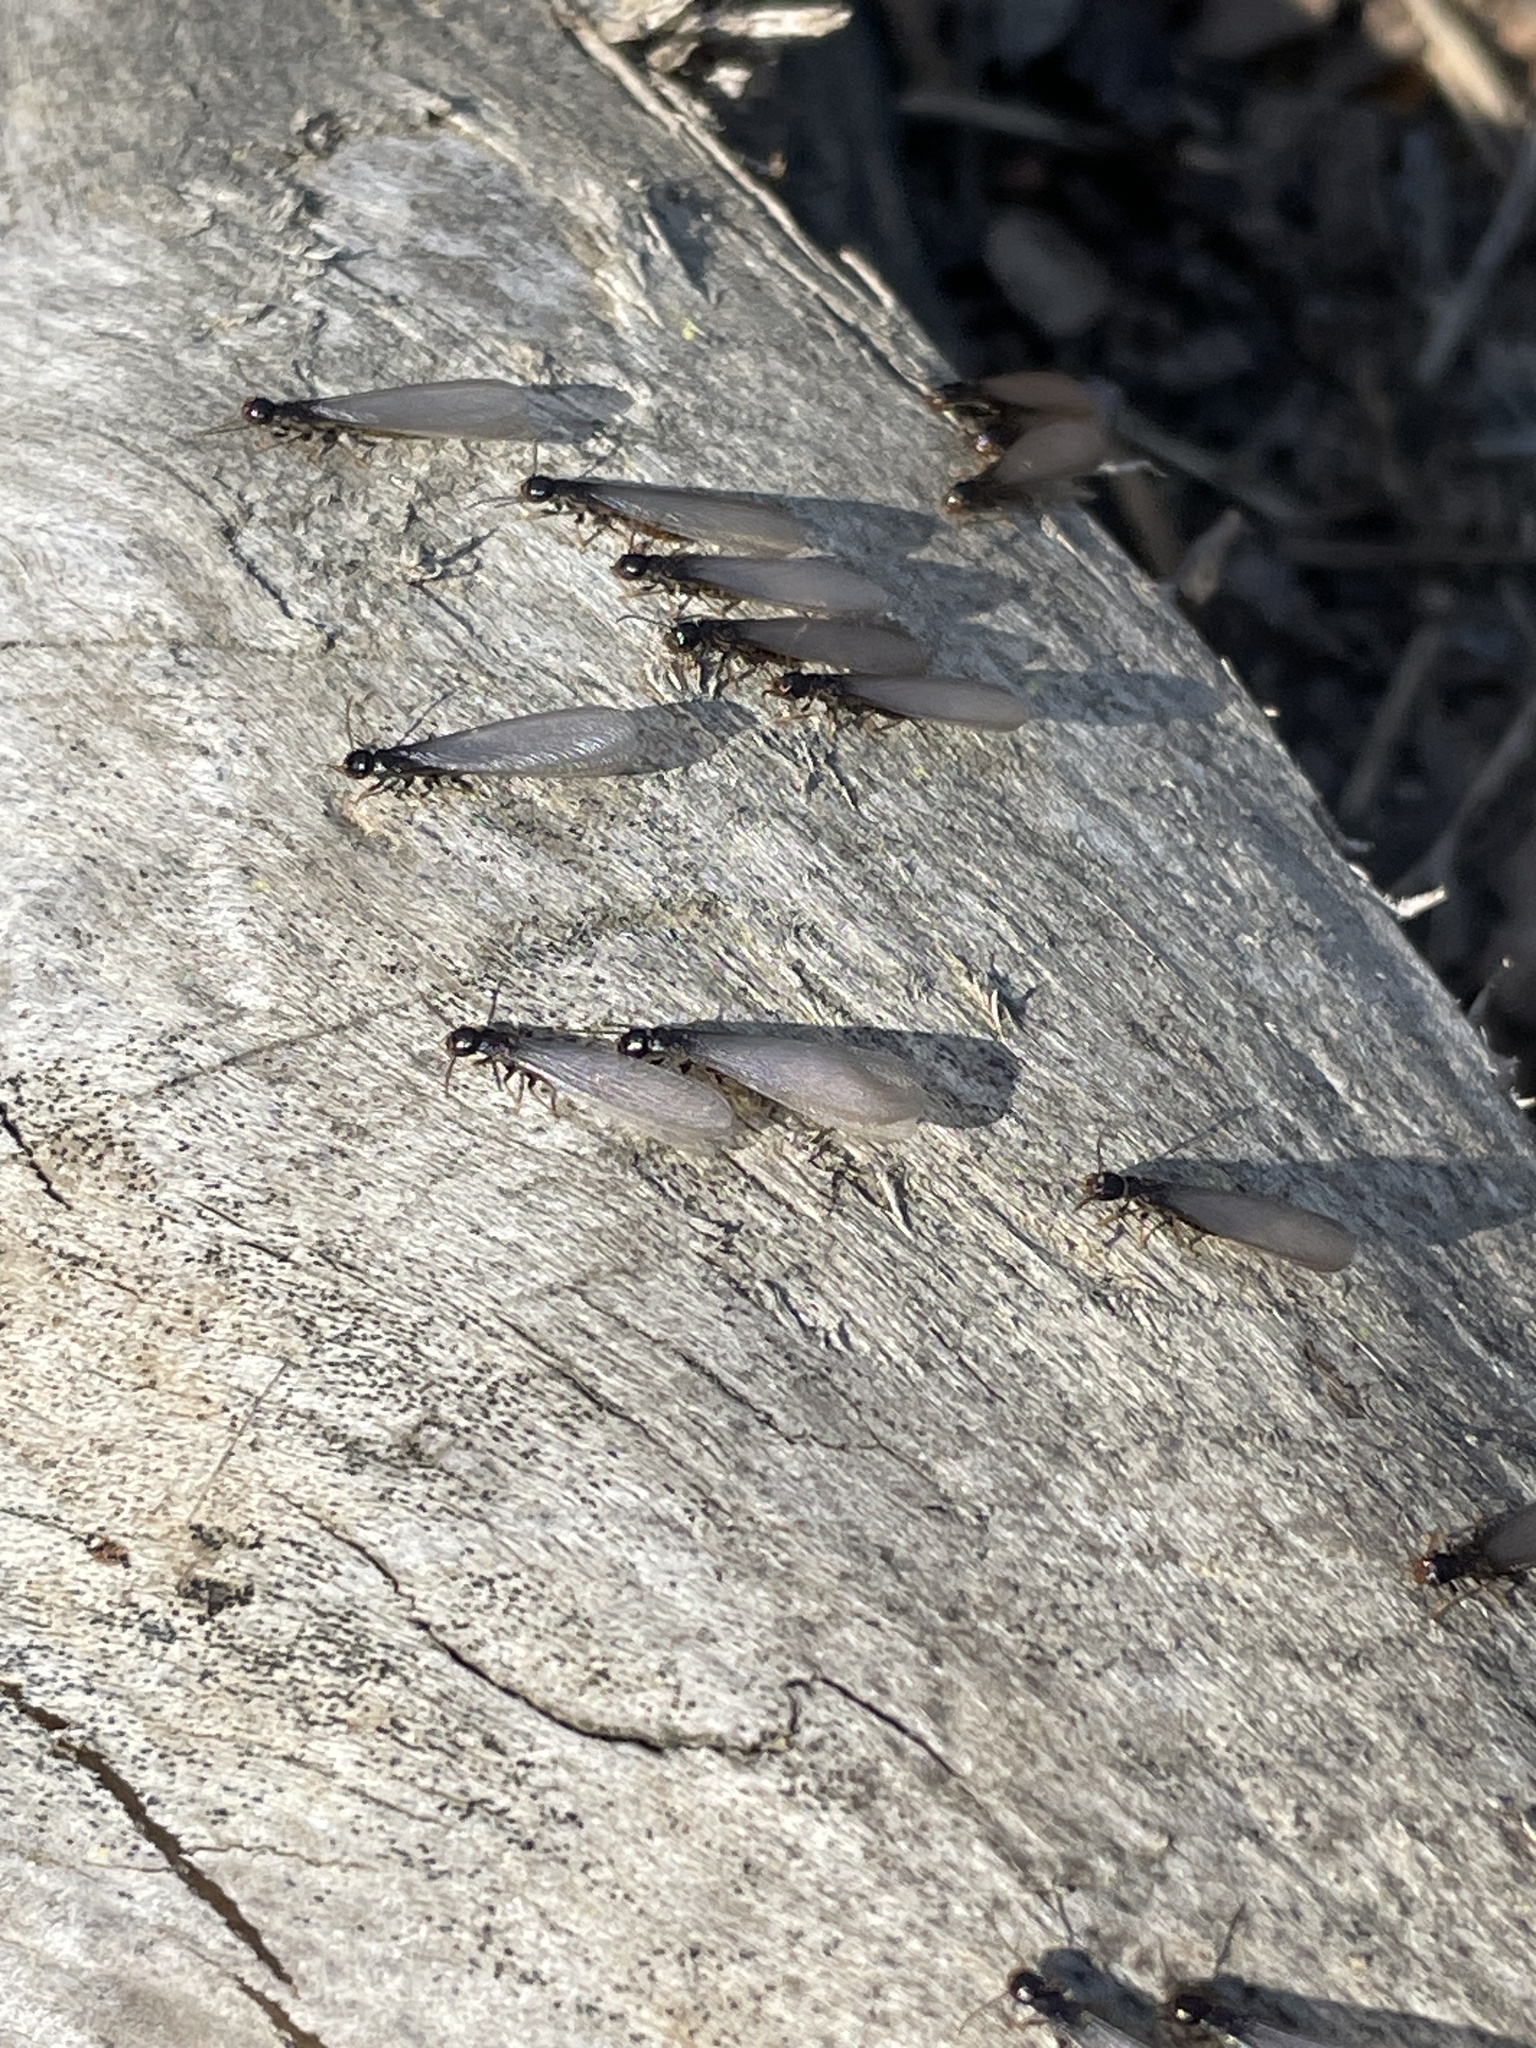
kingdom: Animalia
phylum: Arthropoda
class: Insecta
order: Blattodea
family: Rhinotermitidae
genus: Reticulitermes
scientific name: Reticulitermes flavipes
